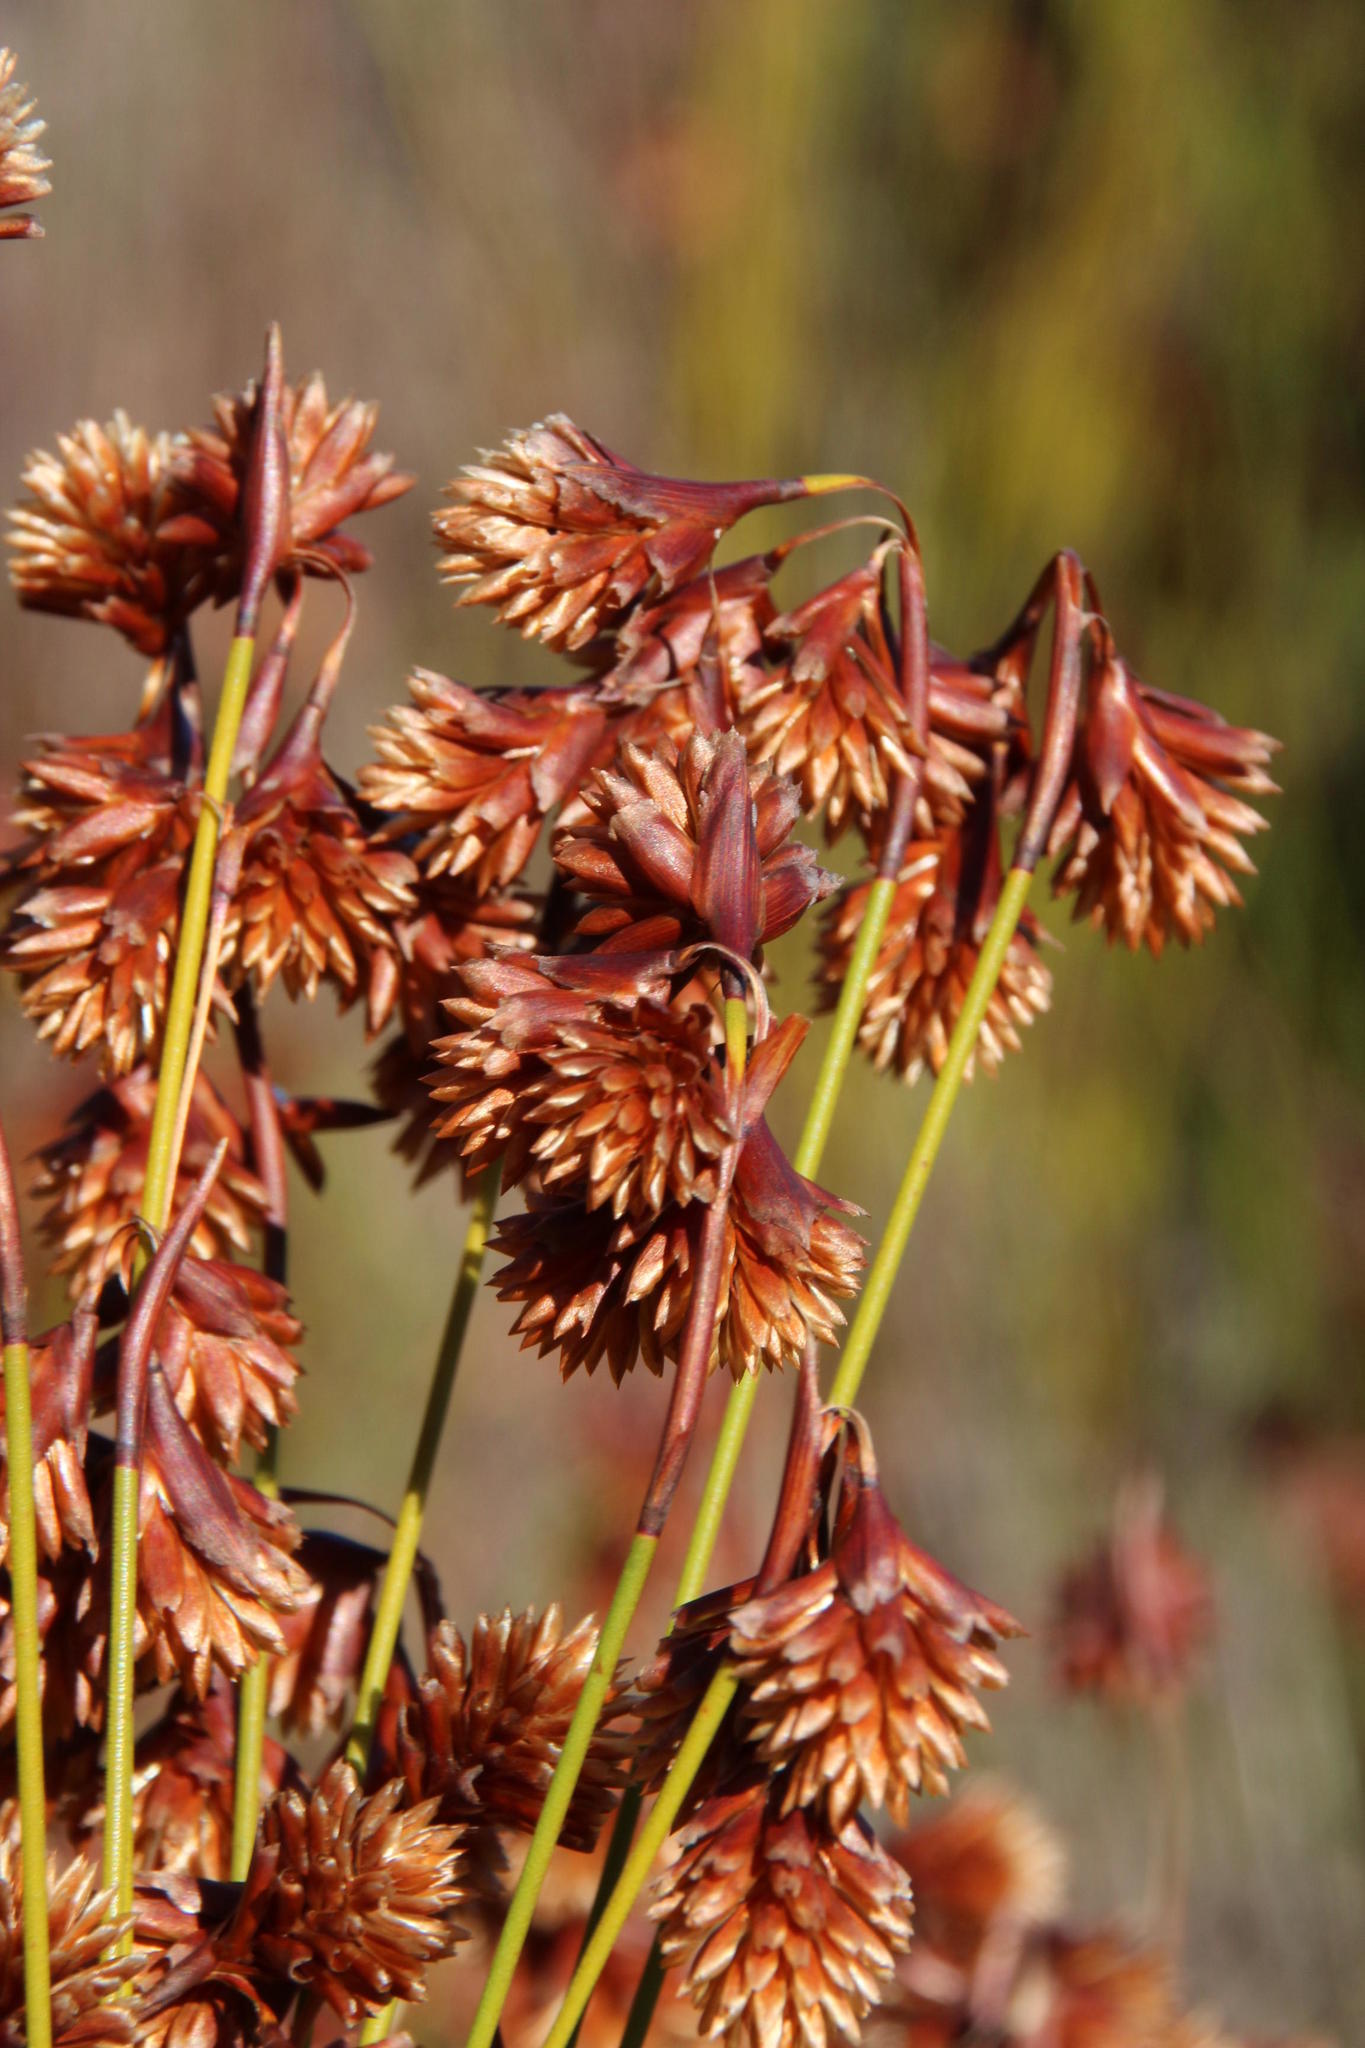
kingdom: Plantae
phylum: Tracheophyta
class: Liliopsida
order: Poales
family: Restionaceae
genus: Staberoha
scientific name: Staberoha cernua
